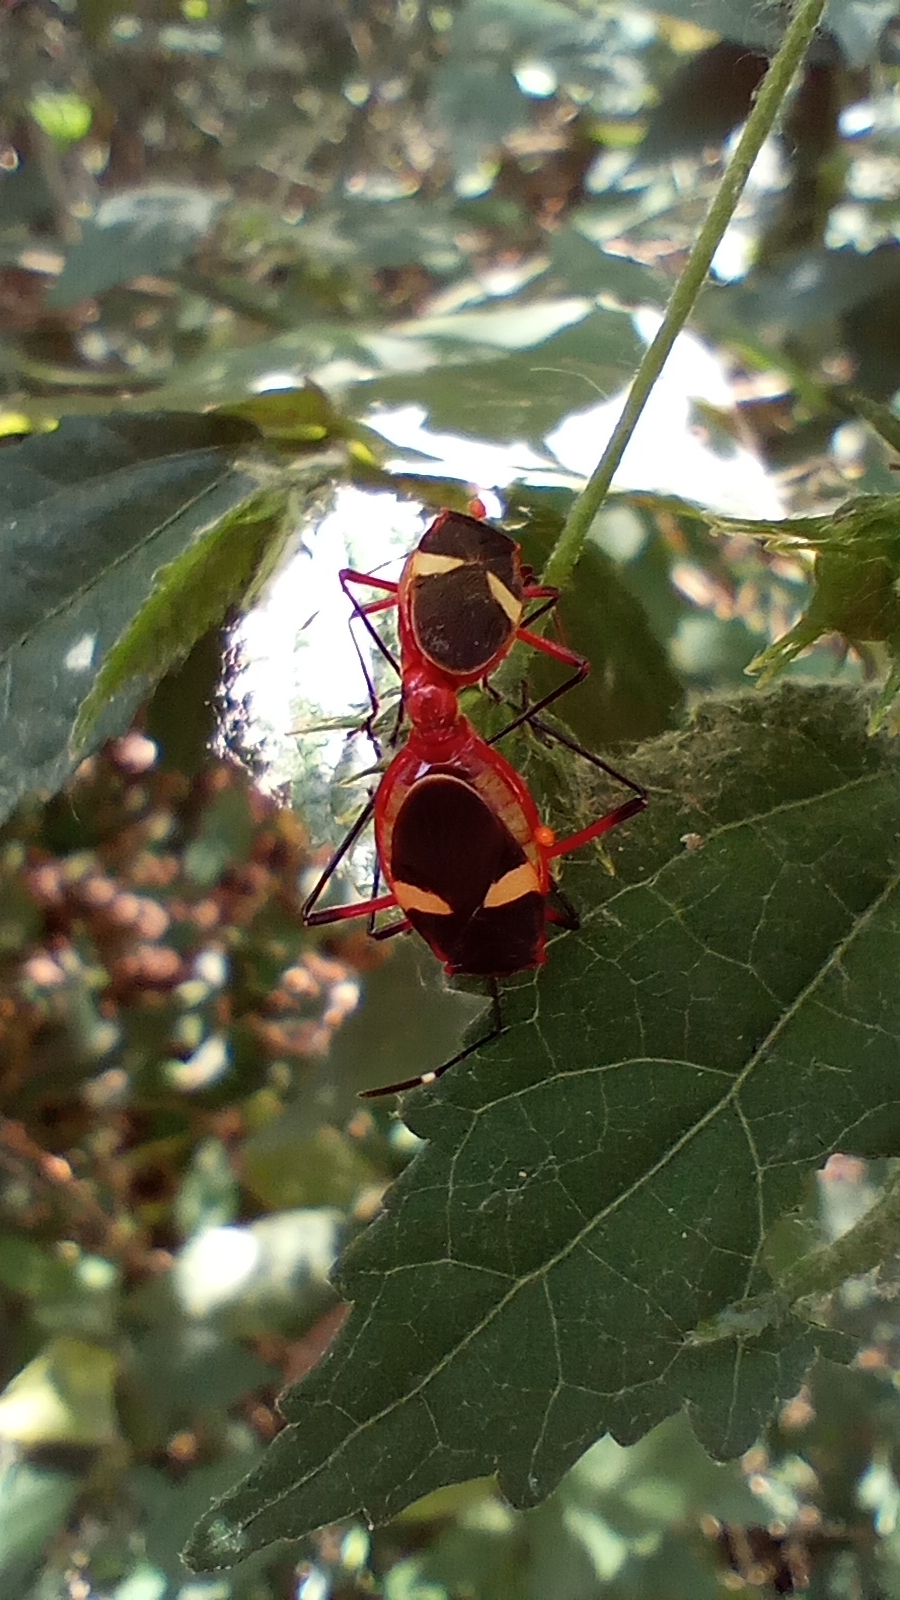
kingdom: Animalia
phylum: Arthropoda
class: Insecta
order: Hemiptera
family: Pyrrhocoridae
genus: Dysdercus
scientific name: Dysdercus albofasciatus
